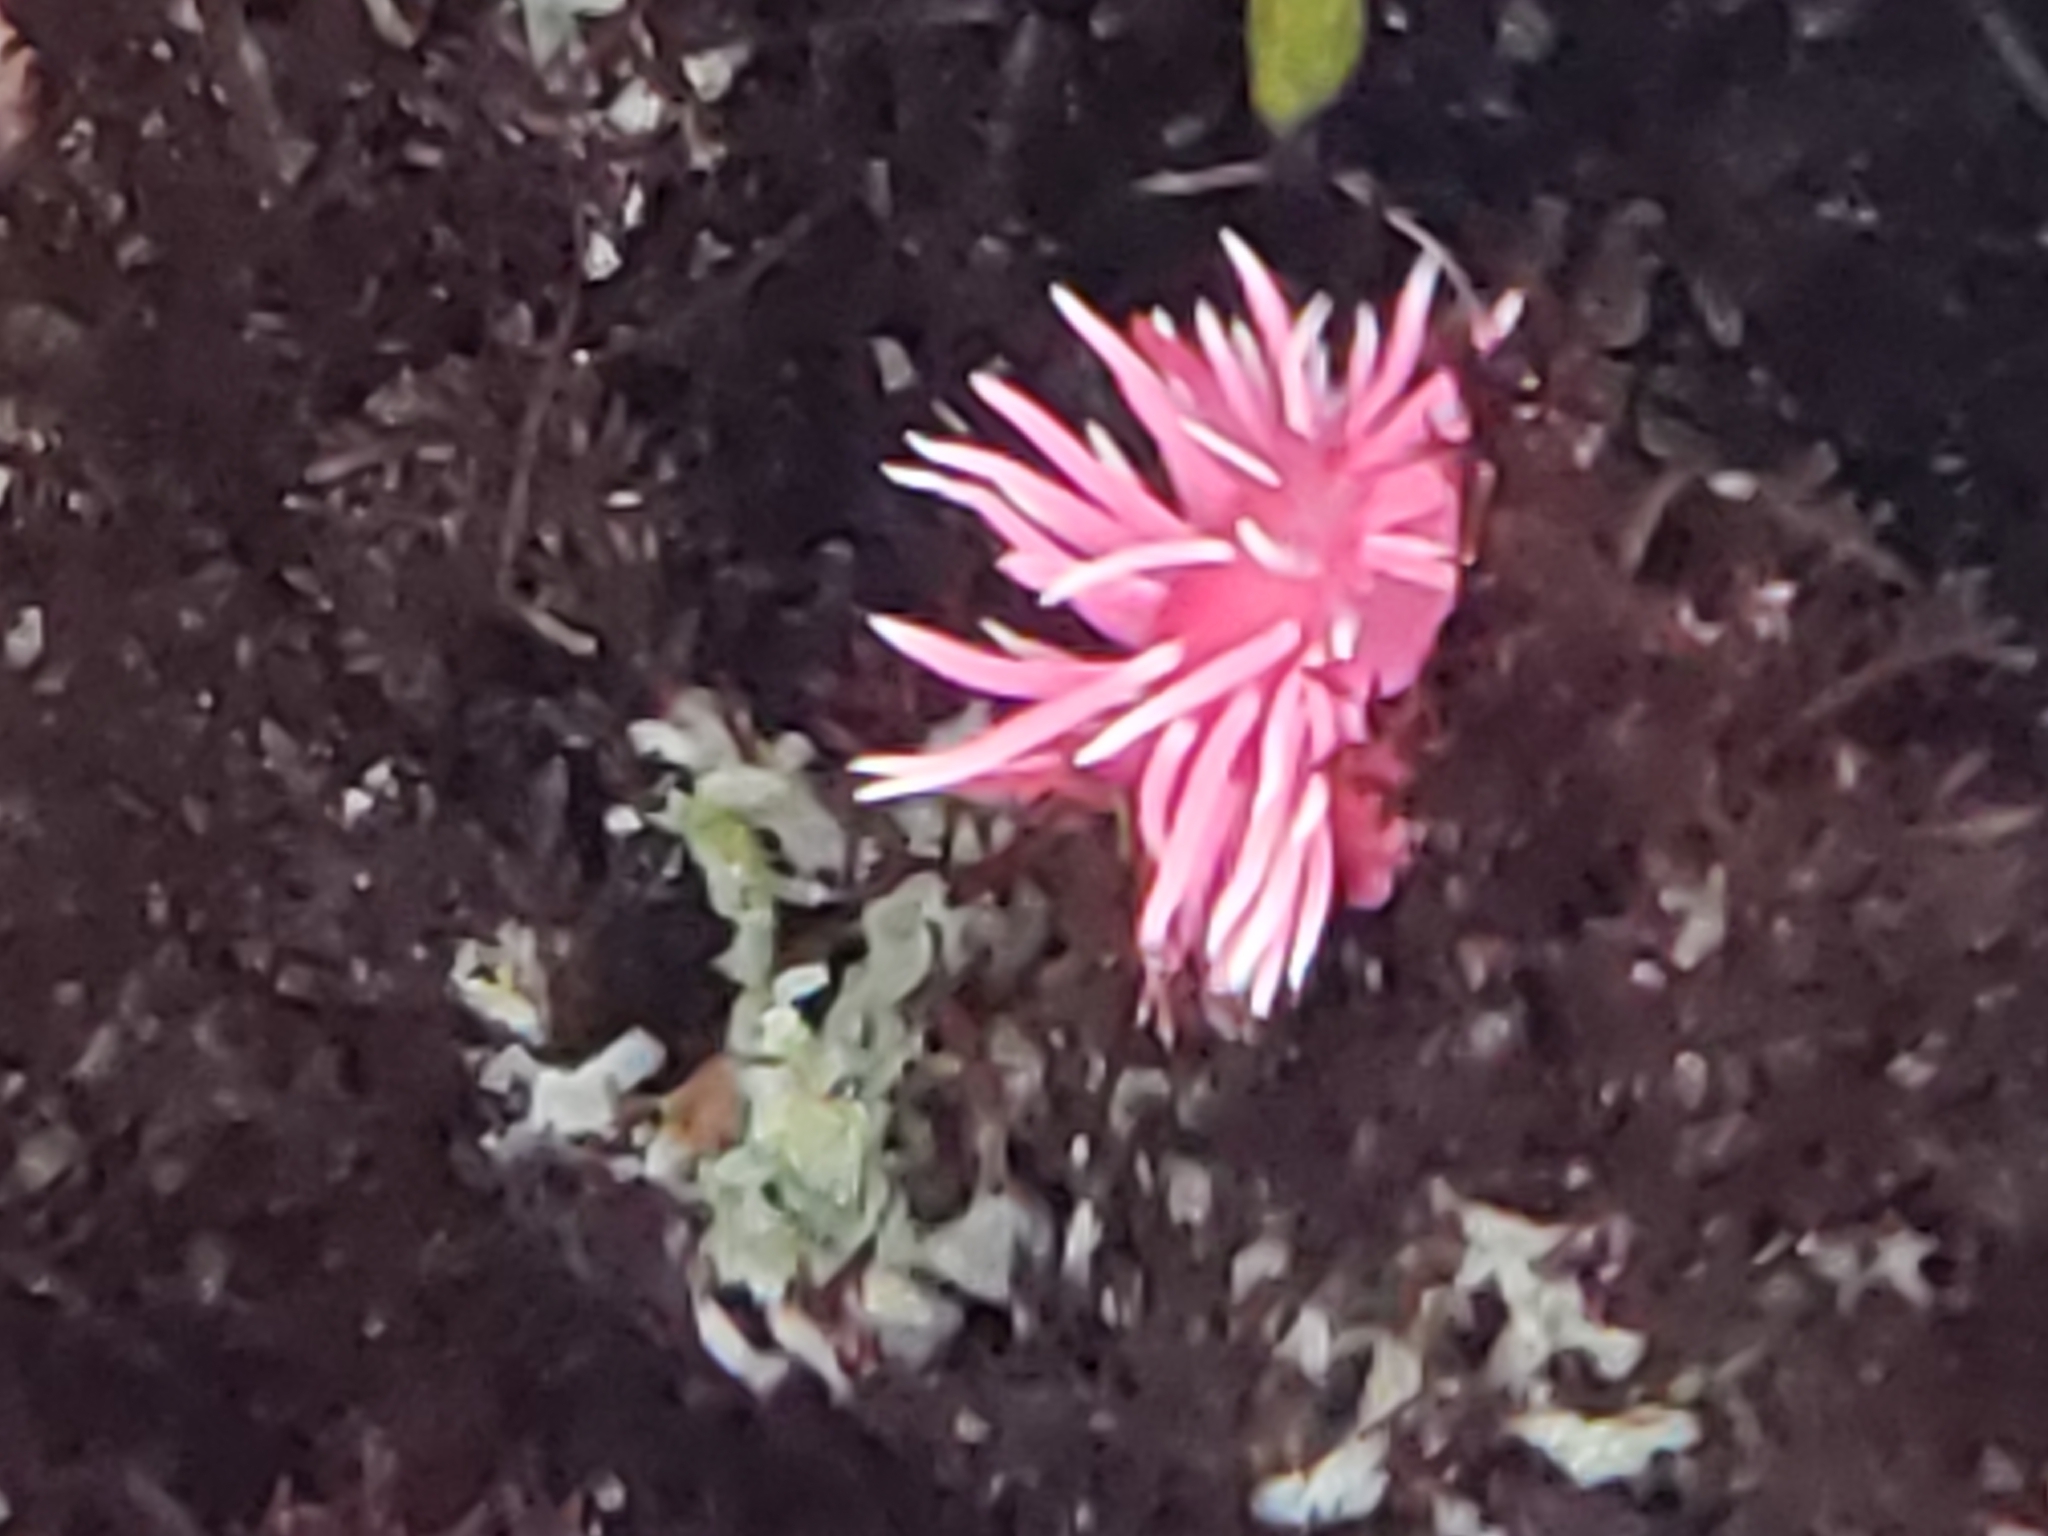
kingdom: Animalia
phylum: Mollusca
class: Gastropoda
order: Nudibranchia
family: Goniodorididae
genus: Okenia
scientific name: Okenia
